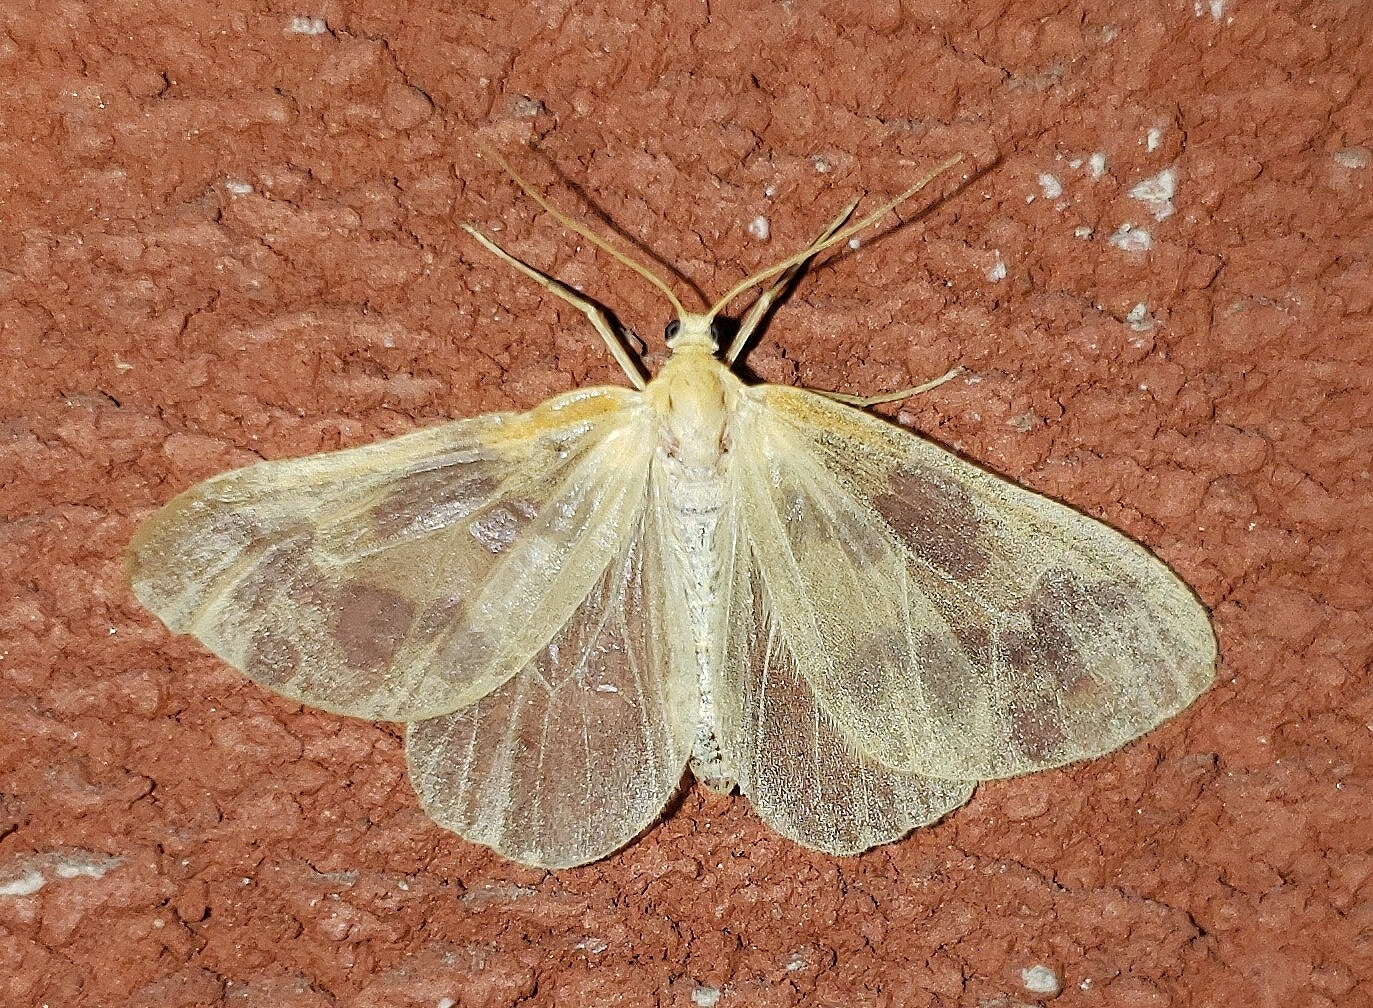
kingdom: Animalia
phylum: Arthropoda
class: Insecta
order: Lepidoptera
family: Geometridae
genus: Eubaphe
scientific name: Eubaphe mendica
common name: Beggar
